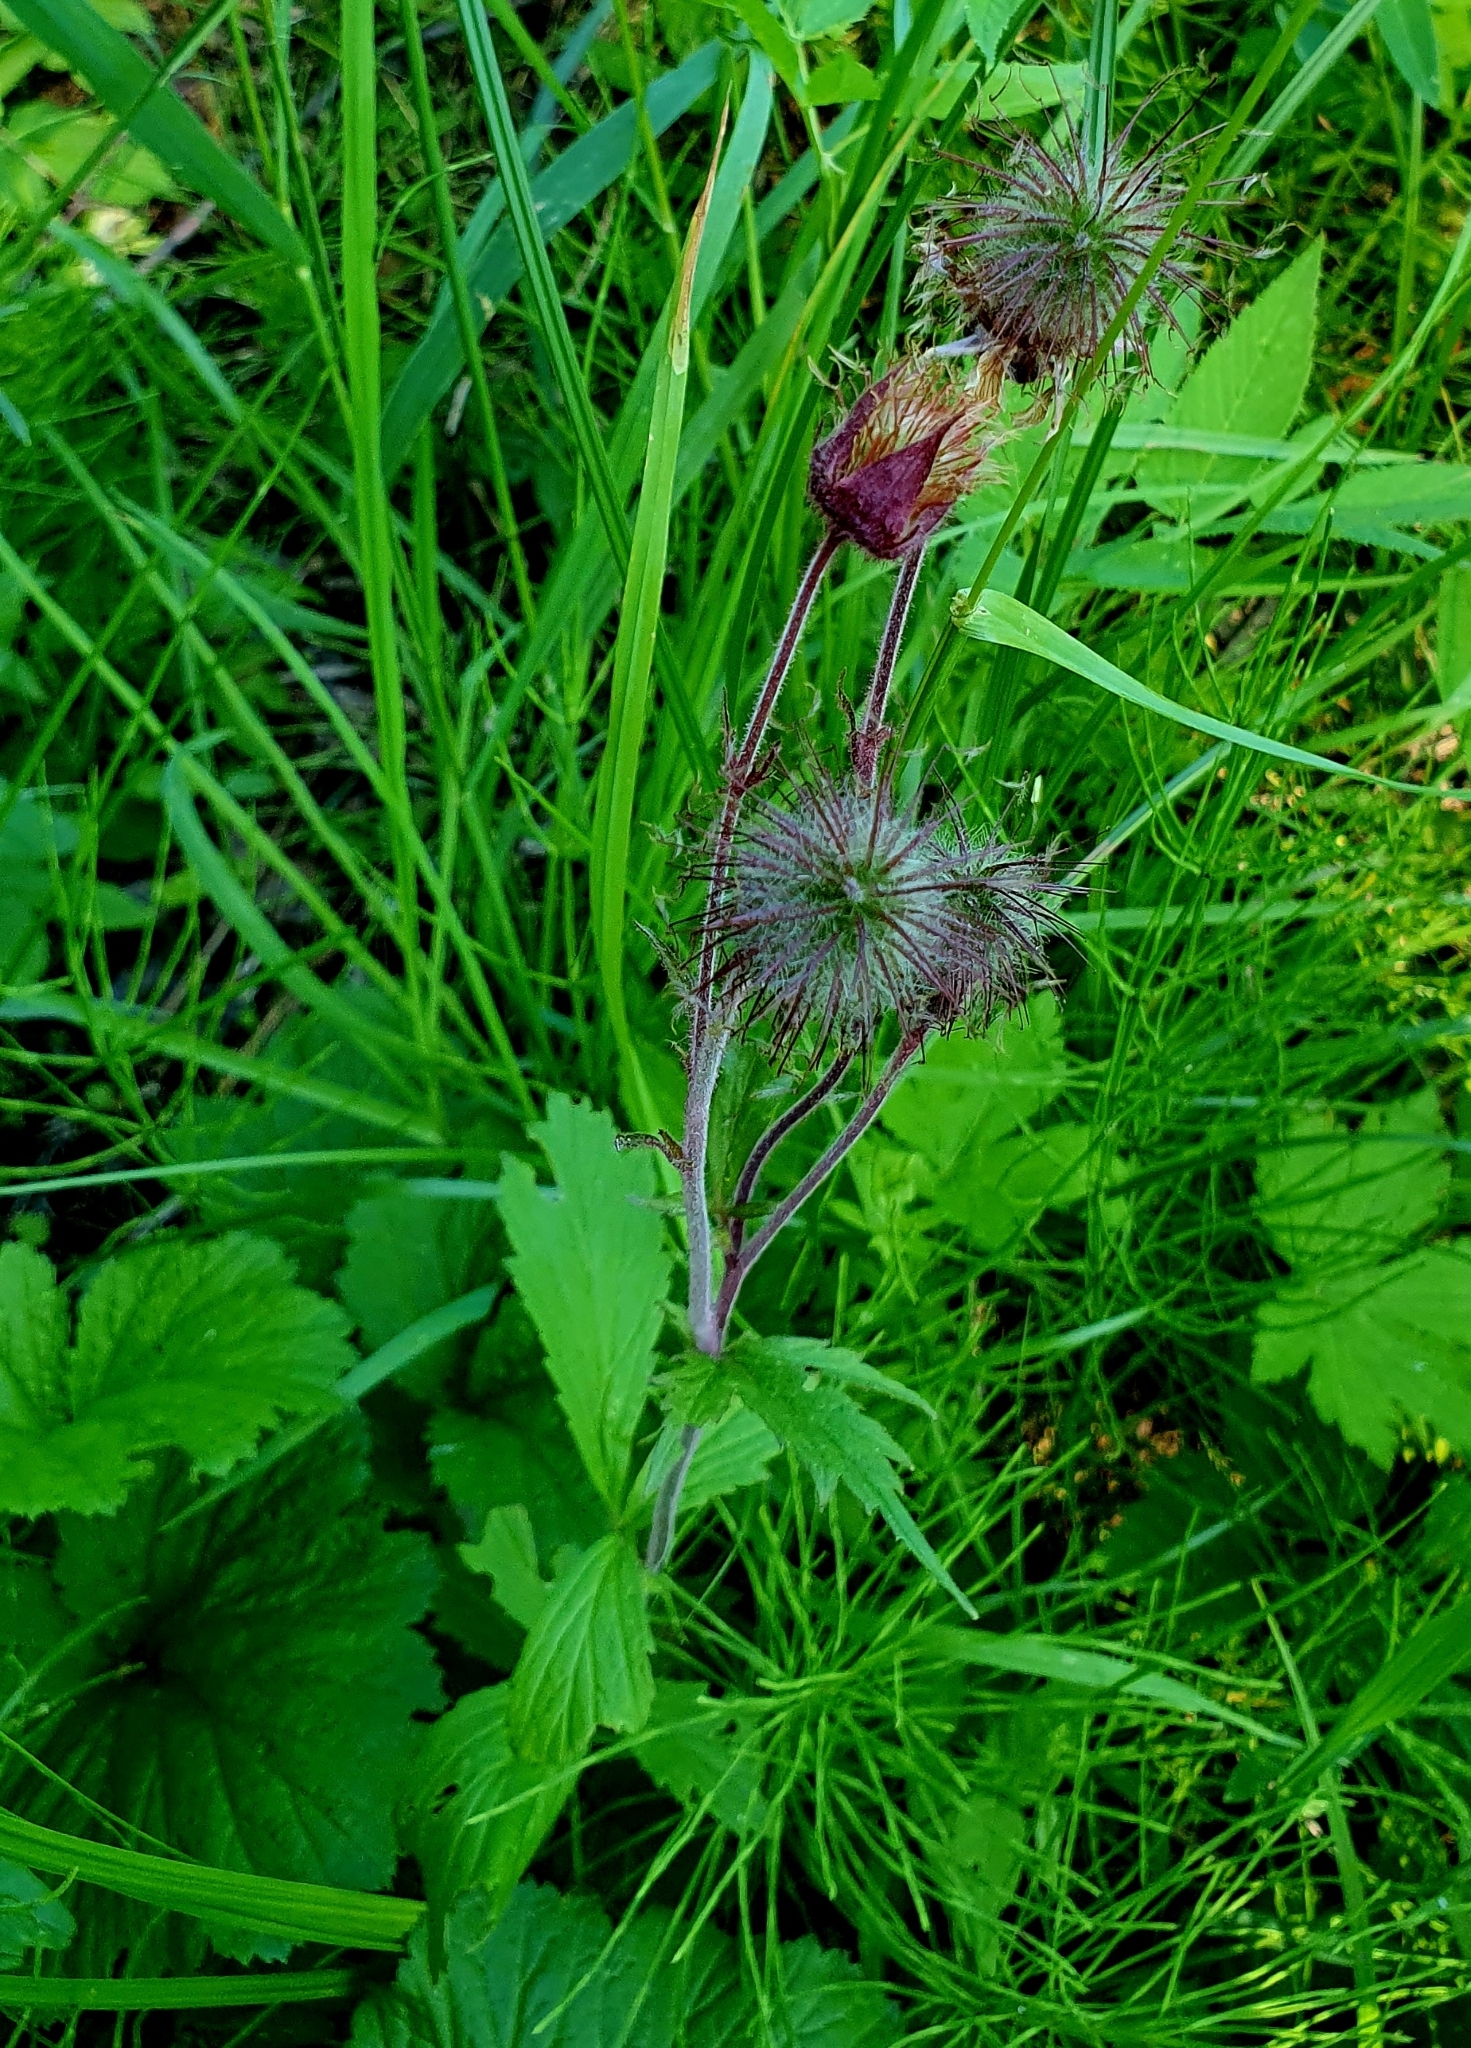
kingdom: Plantae
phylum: Tracheophyta
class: Magnoliopsida
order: Rosales
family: Rosaceae
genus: Geum
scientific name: Geum rivale
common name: Water avens
